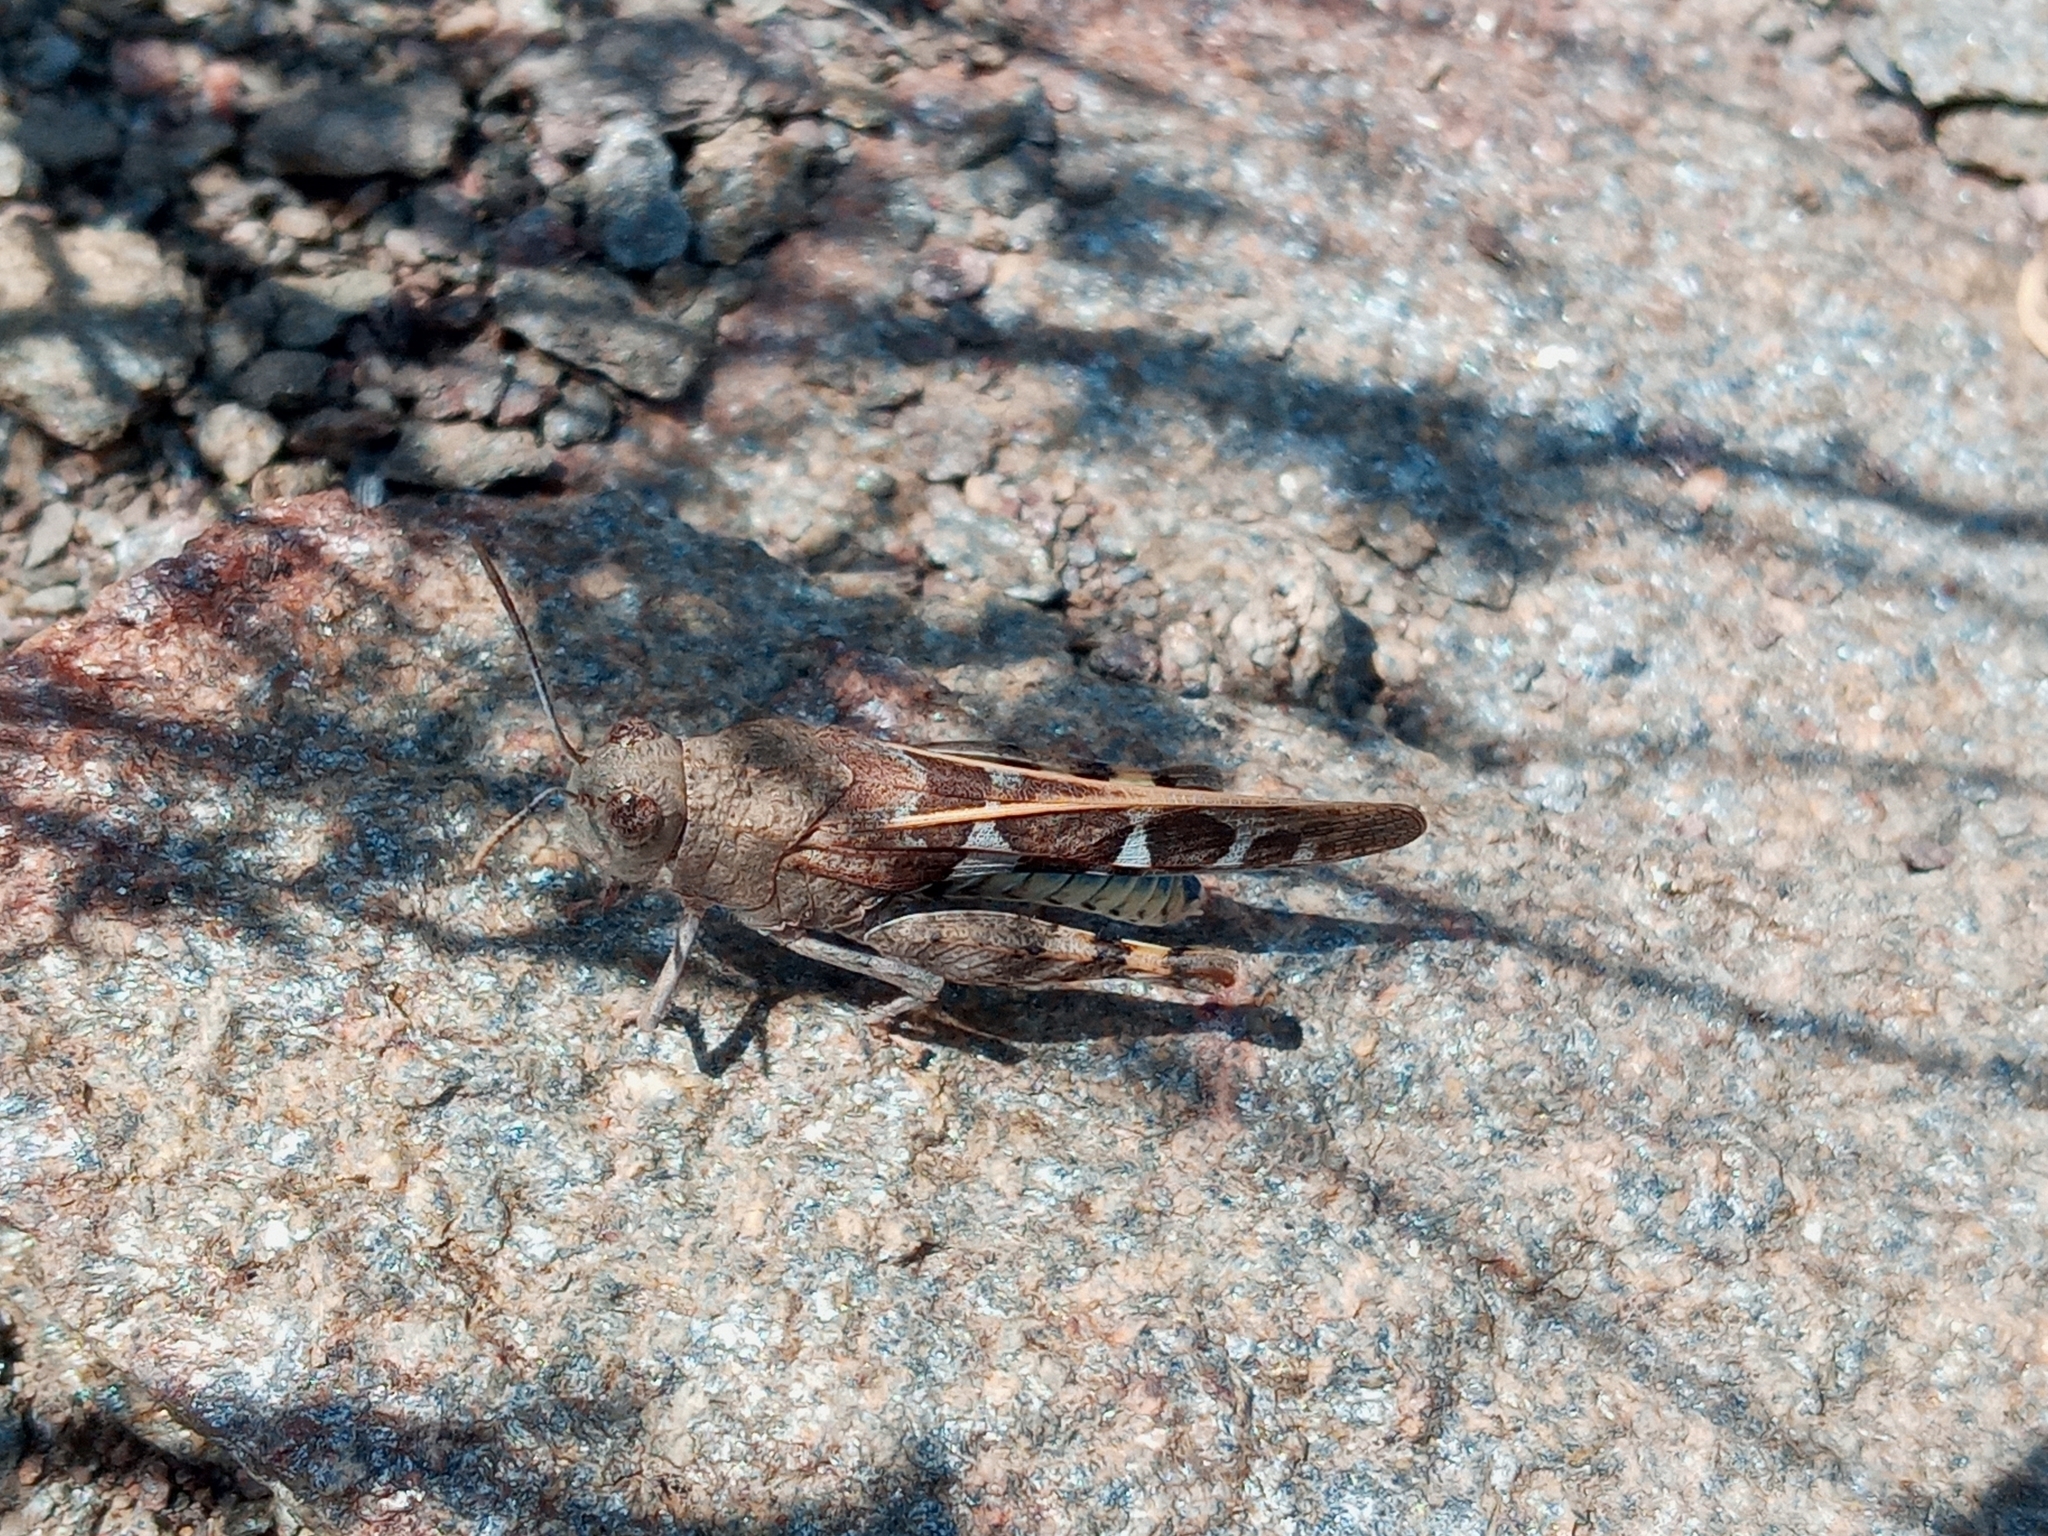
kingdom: Animalia
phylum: Arthropoda
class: Insecta
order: Orthoptera
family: Acrididae
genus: Leprus
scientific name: Leprus intermedius
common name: Saussure's blue-winged grasshopper
